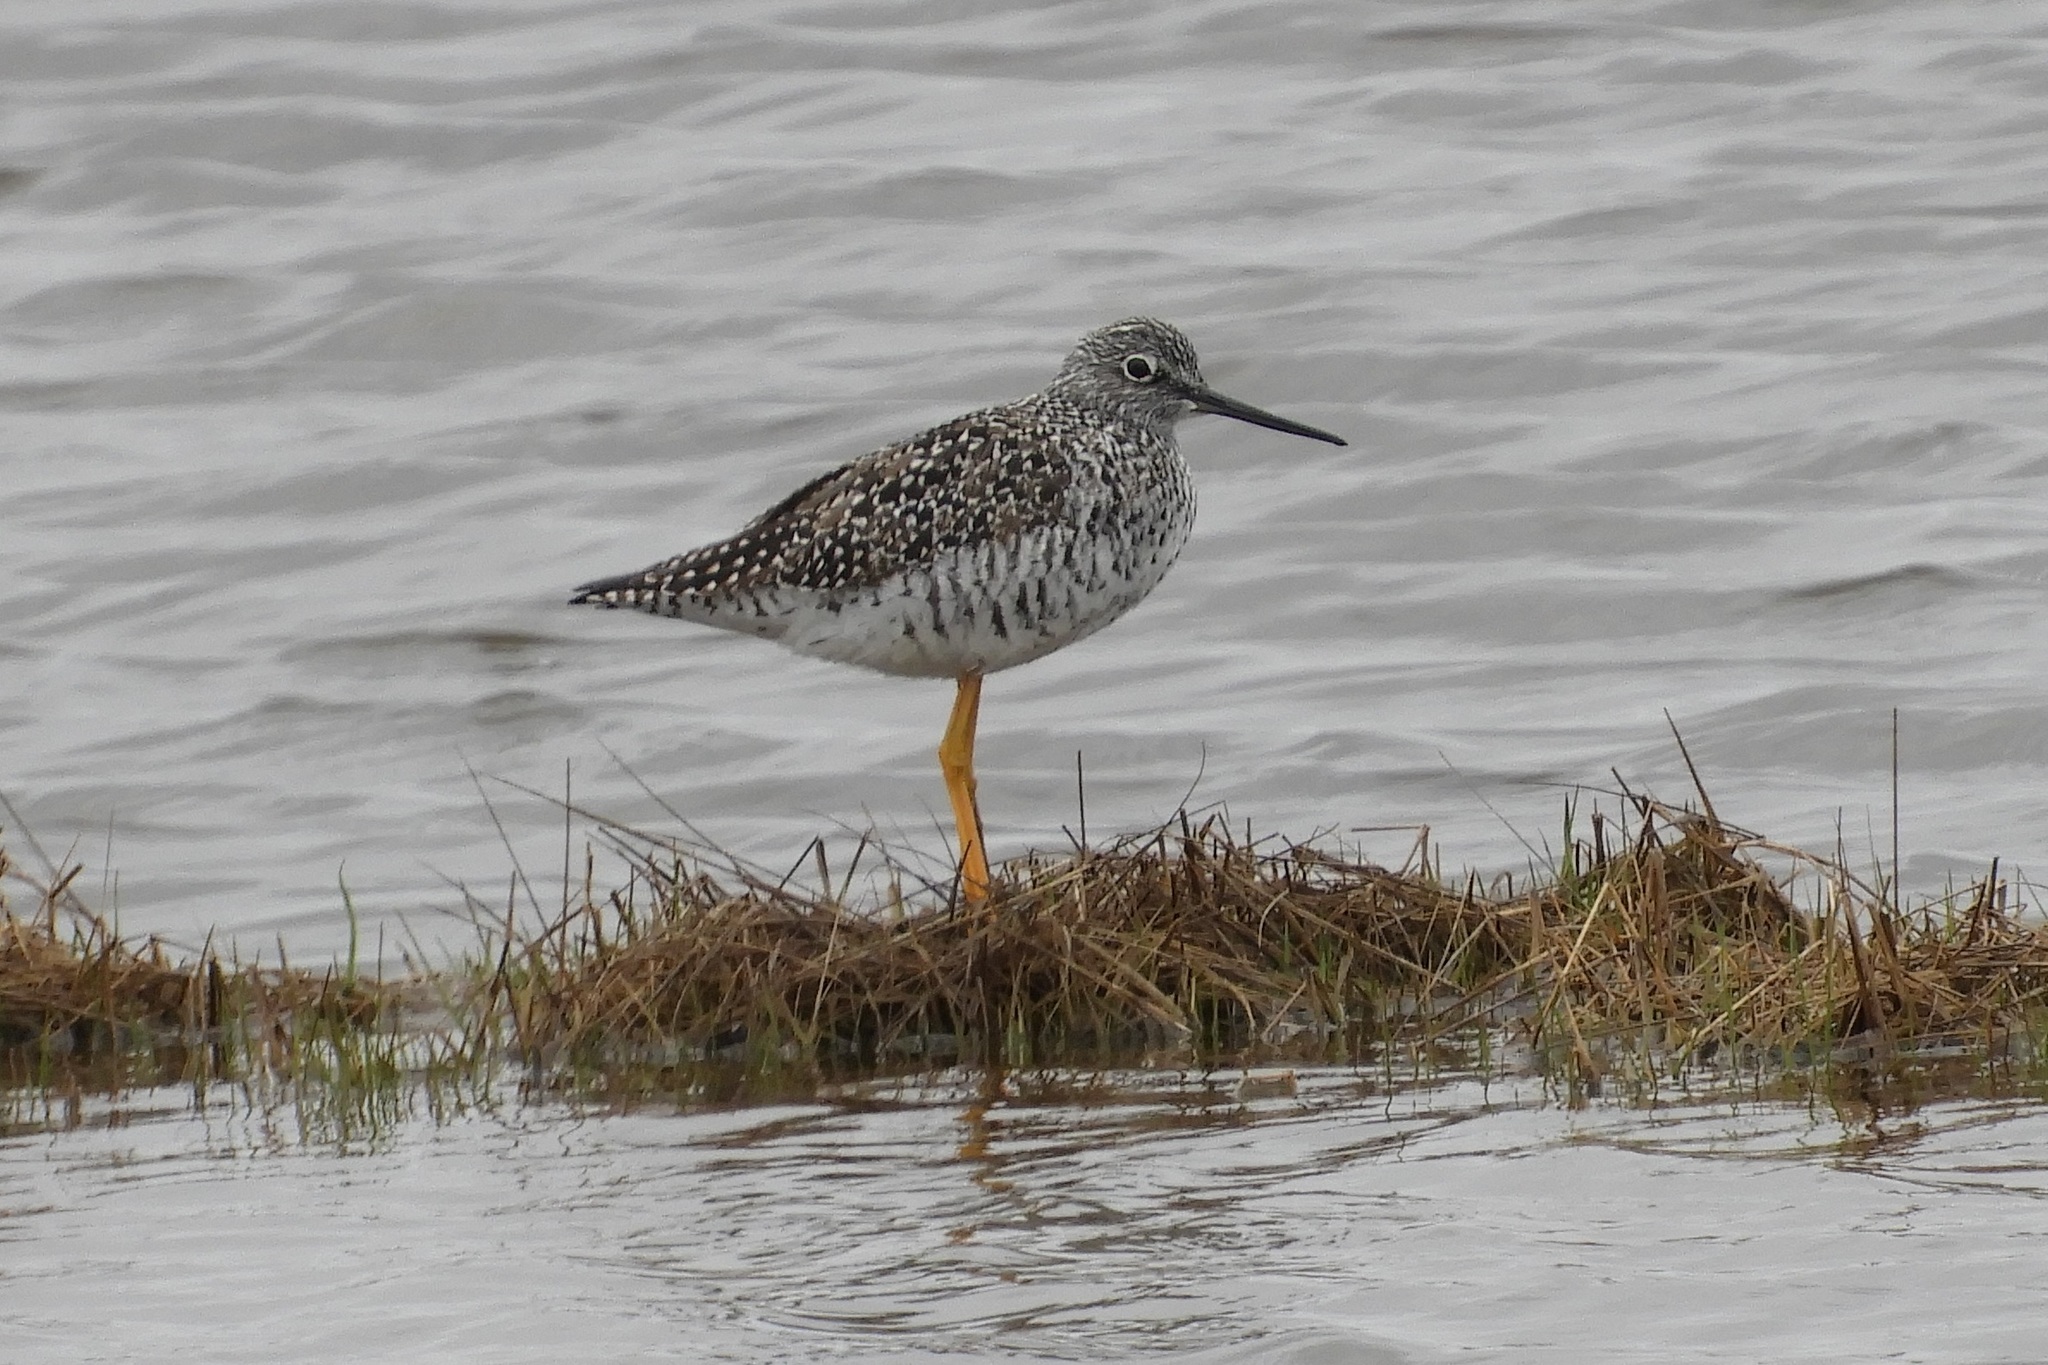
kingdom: Animalia
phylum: Chordata
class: Aves
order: Charadriiformes
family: Scolopacidae
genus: Tringa
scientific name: Tringa melanoleuca
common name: Greater yellowlegs
